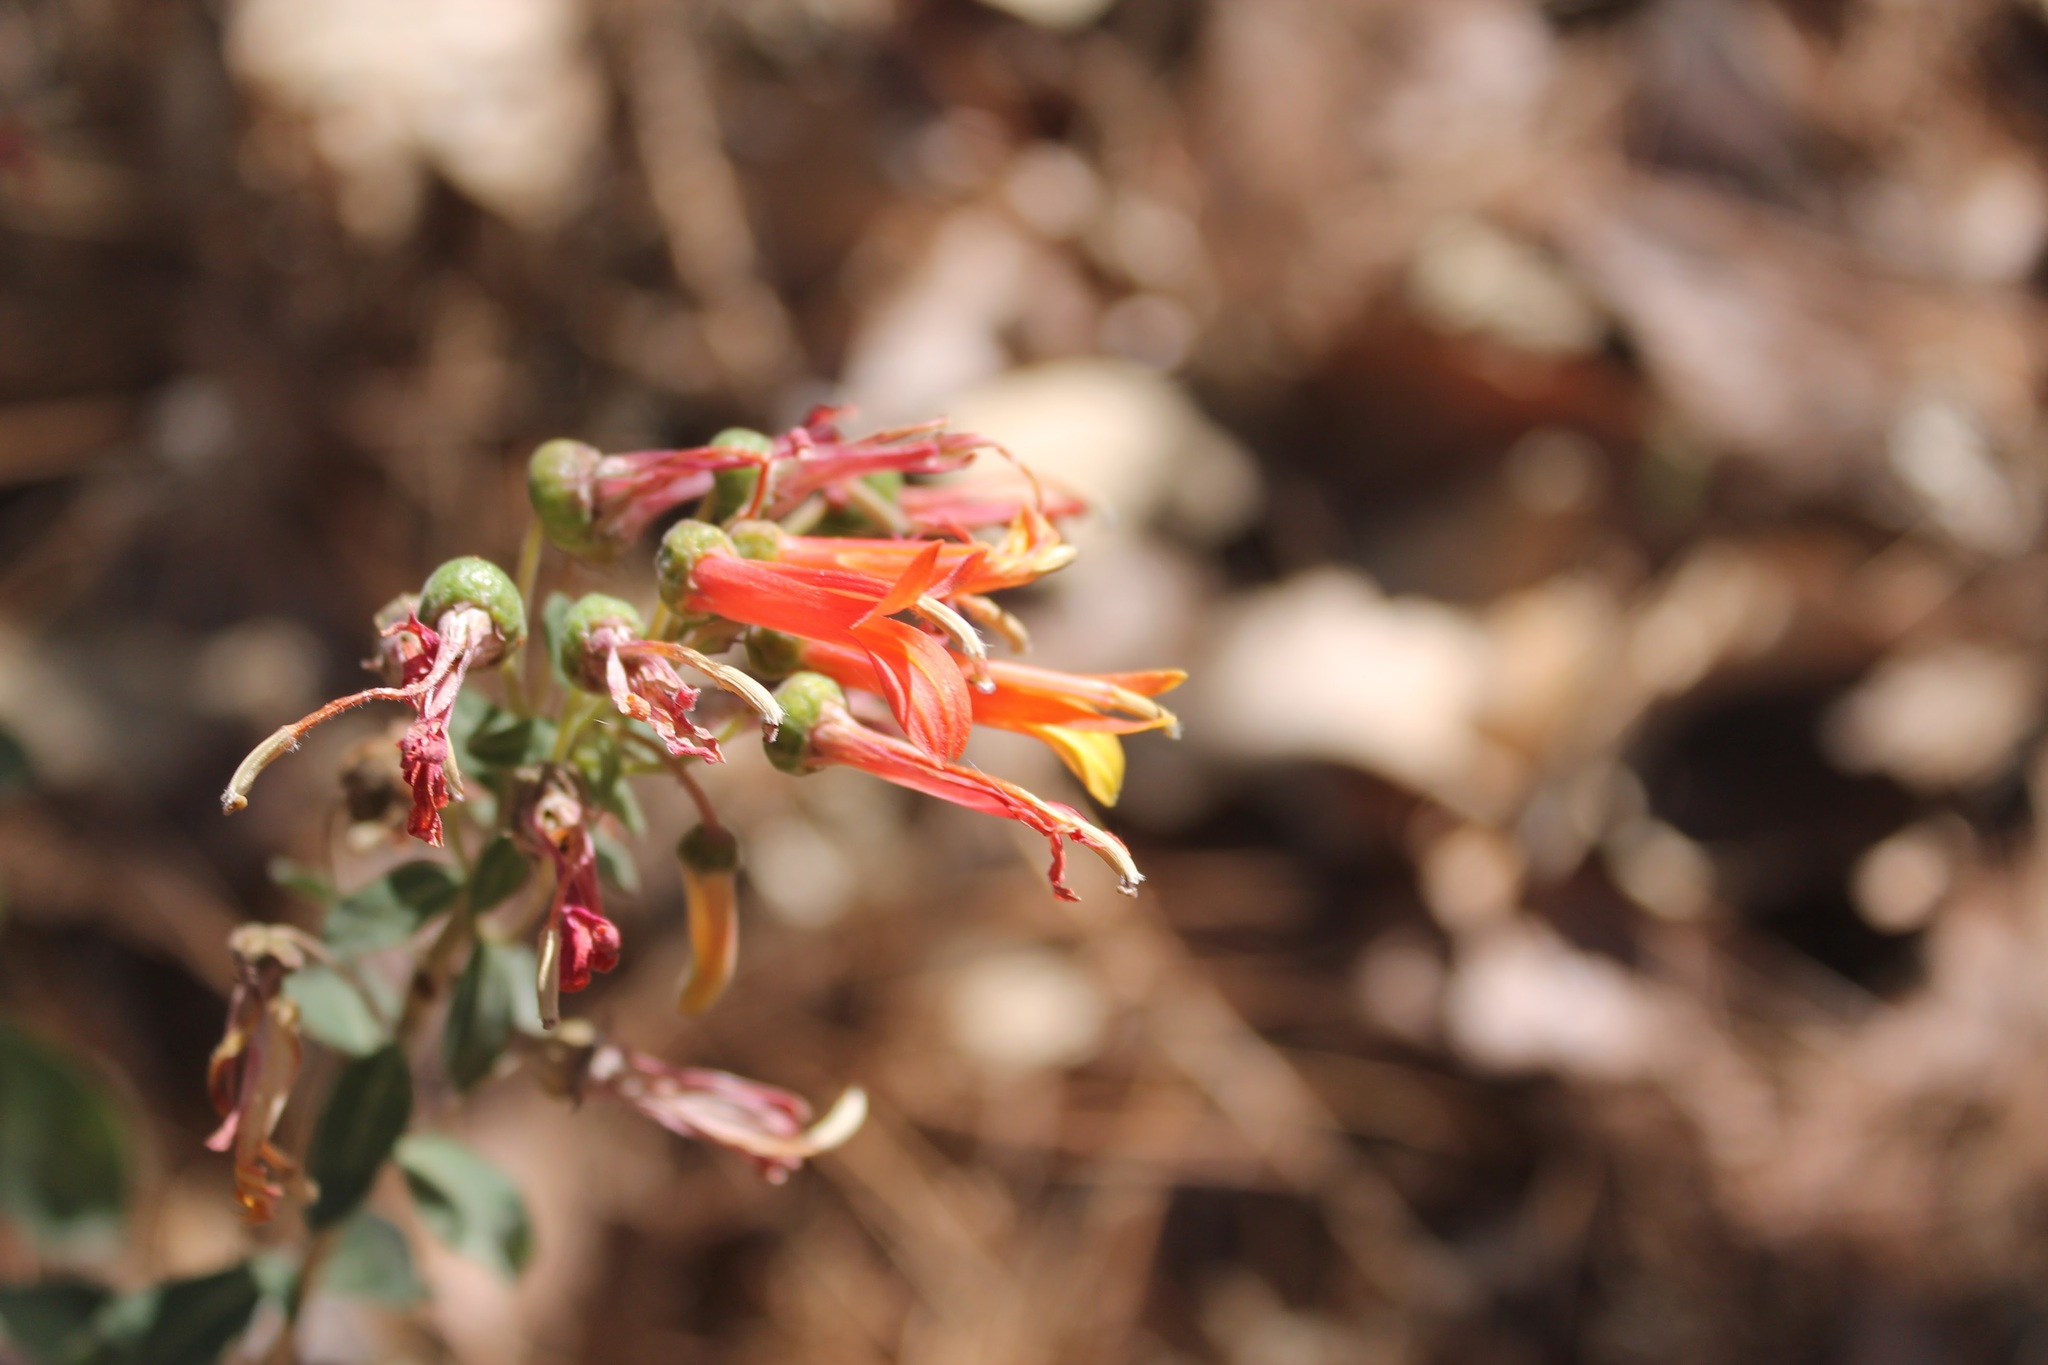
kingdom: Plantae
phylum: Tracheophyta
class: Magnoliopsida
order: Asterales
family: Campanulaceae
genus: Lobelia
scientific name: Lobelia laxiflora
